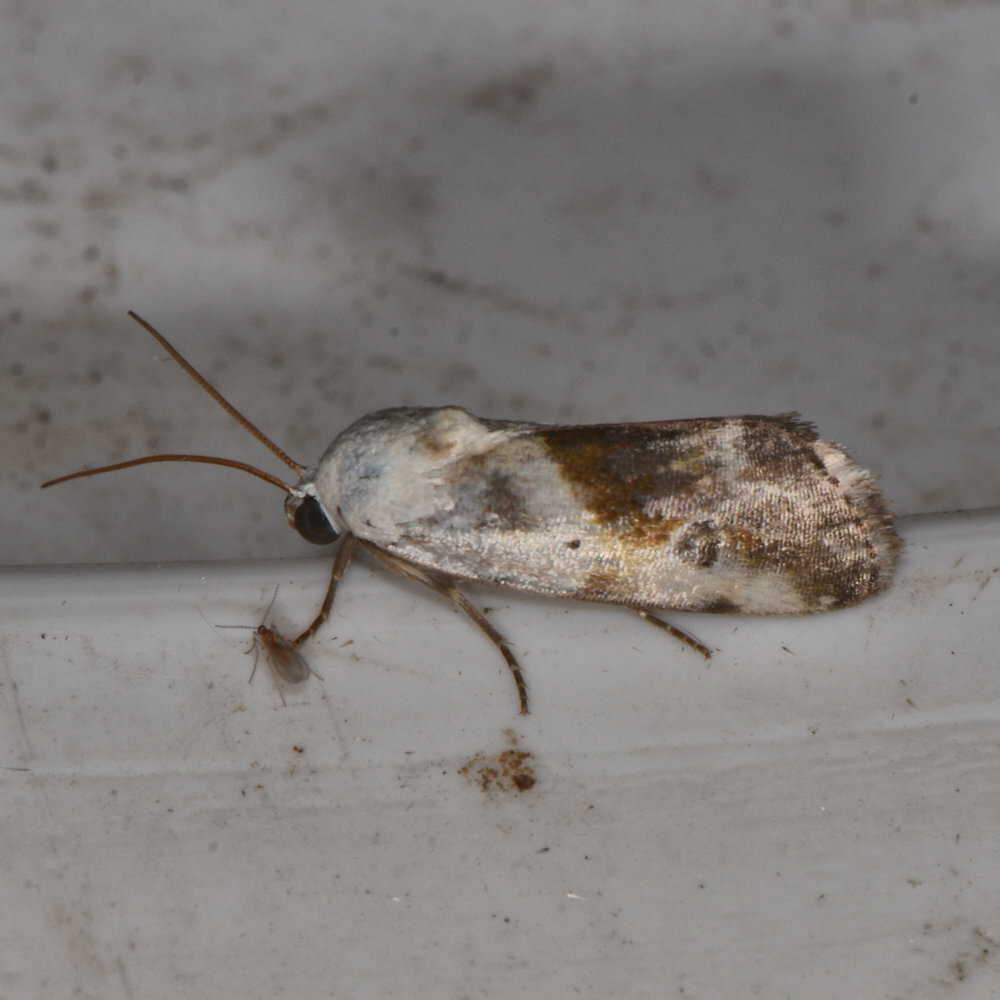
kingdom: Animalia
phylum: Arthropoda
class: Insecta
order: Lepidoptera
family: Noctuidae
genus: Acontia
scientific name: Acontia candefacta
